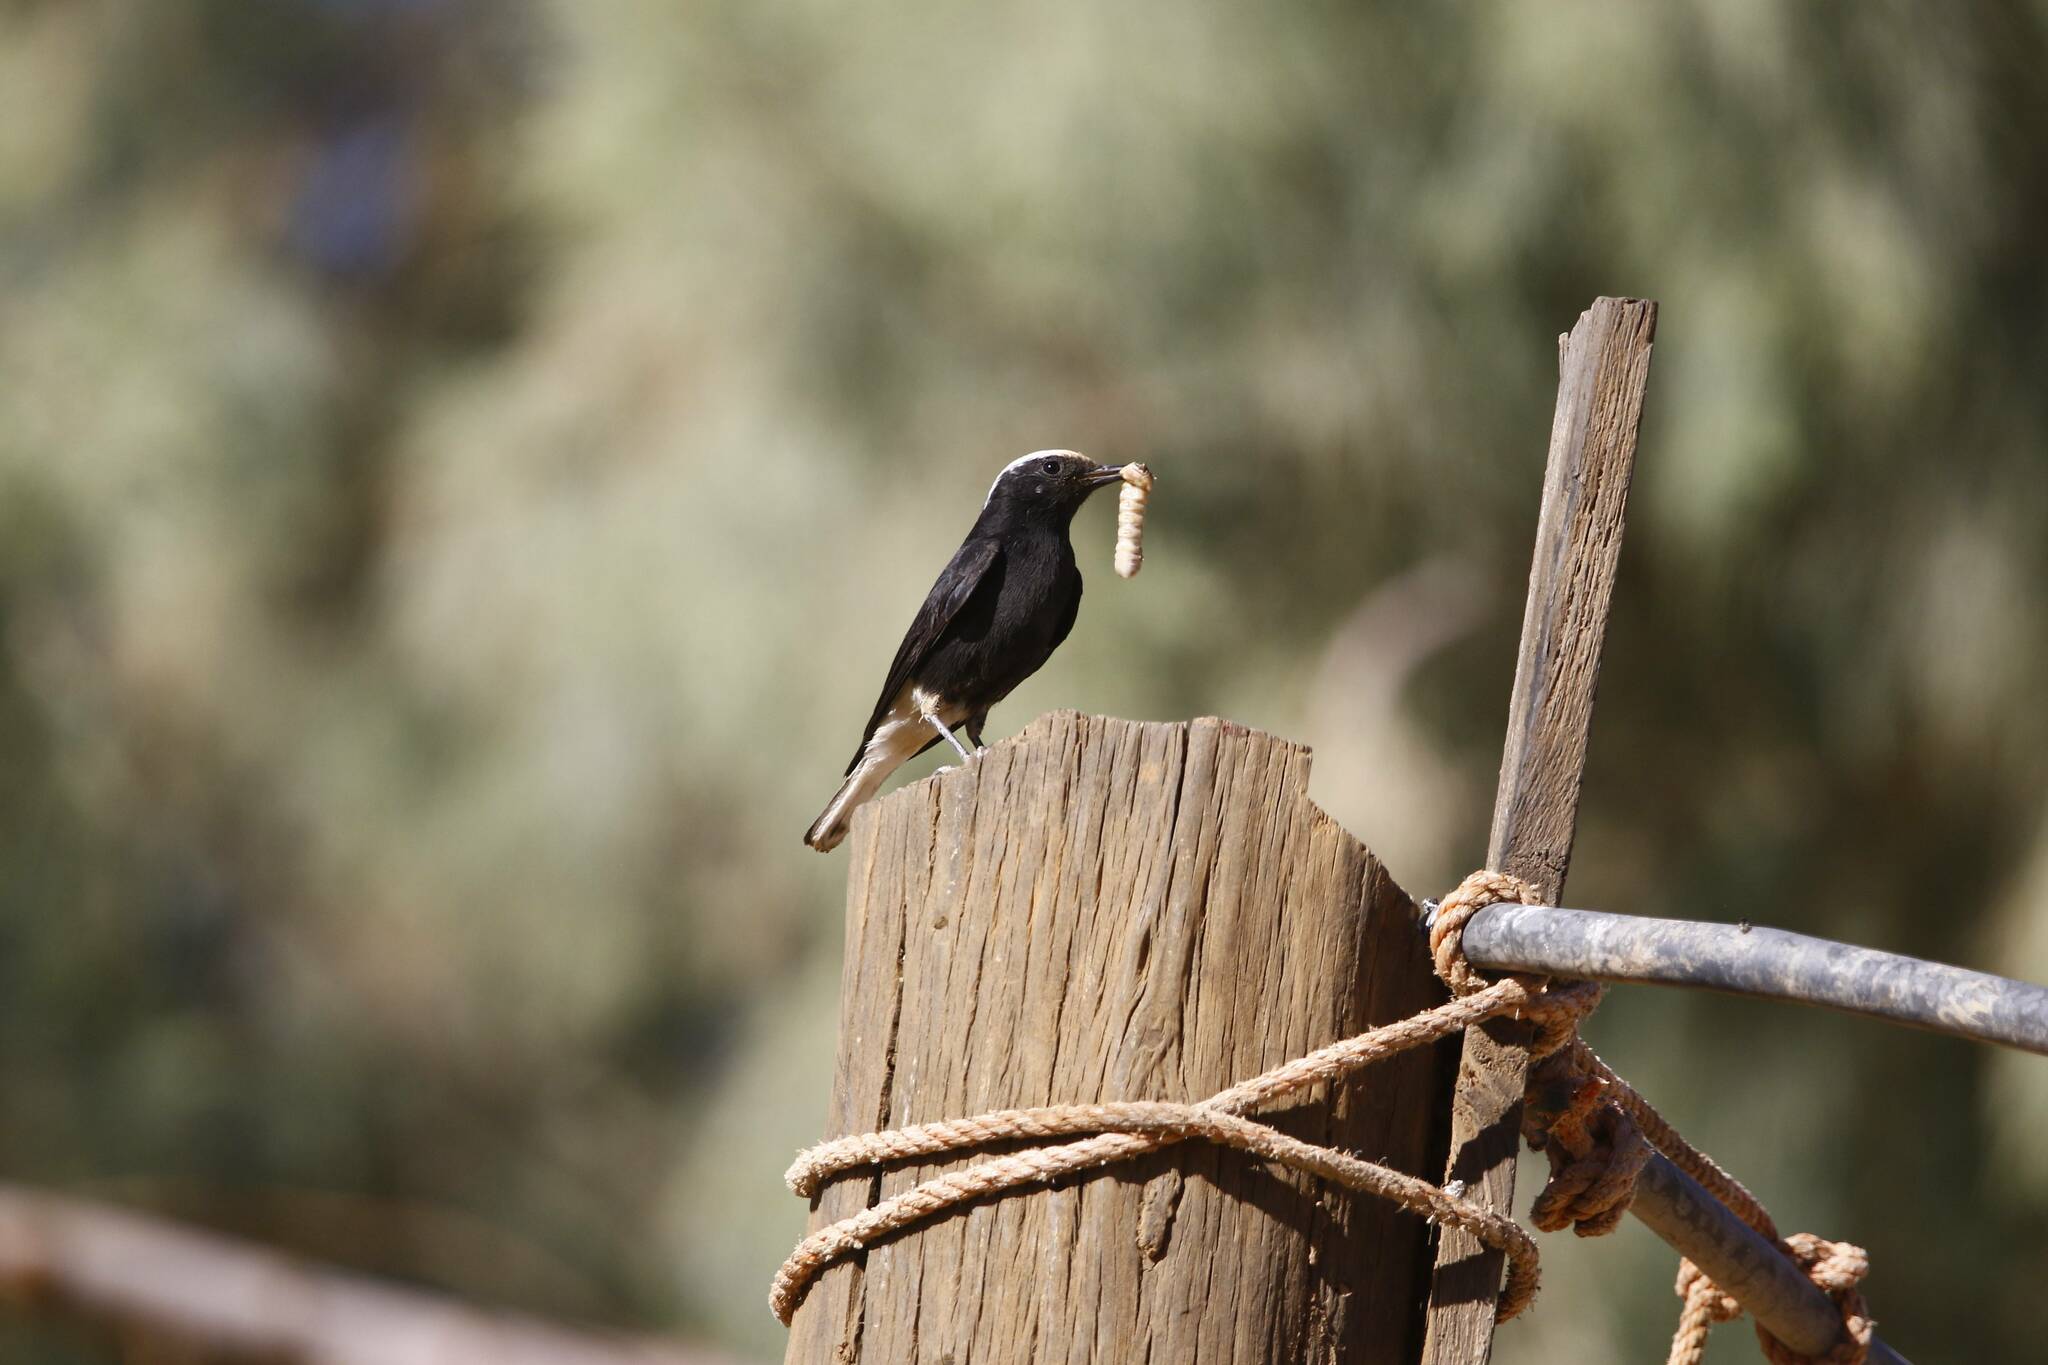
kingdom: Animalia
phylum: Chordata
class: Aves
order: Passeriformes
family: Muscicapidae
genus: Oenanthe
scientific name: Oenanthe leucopyga
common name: White-crowned wheatear
